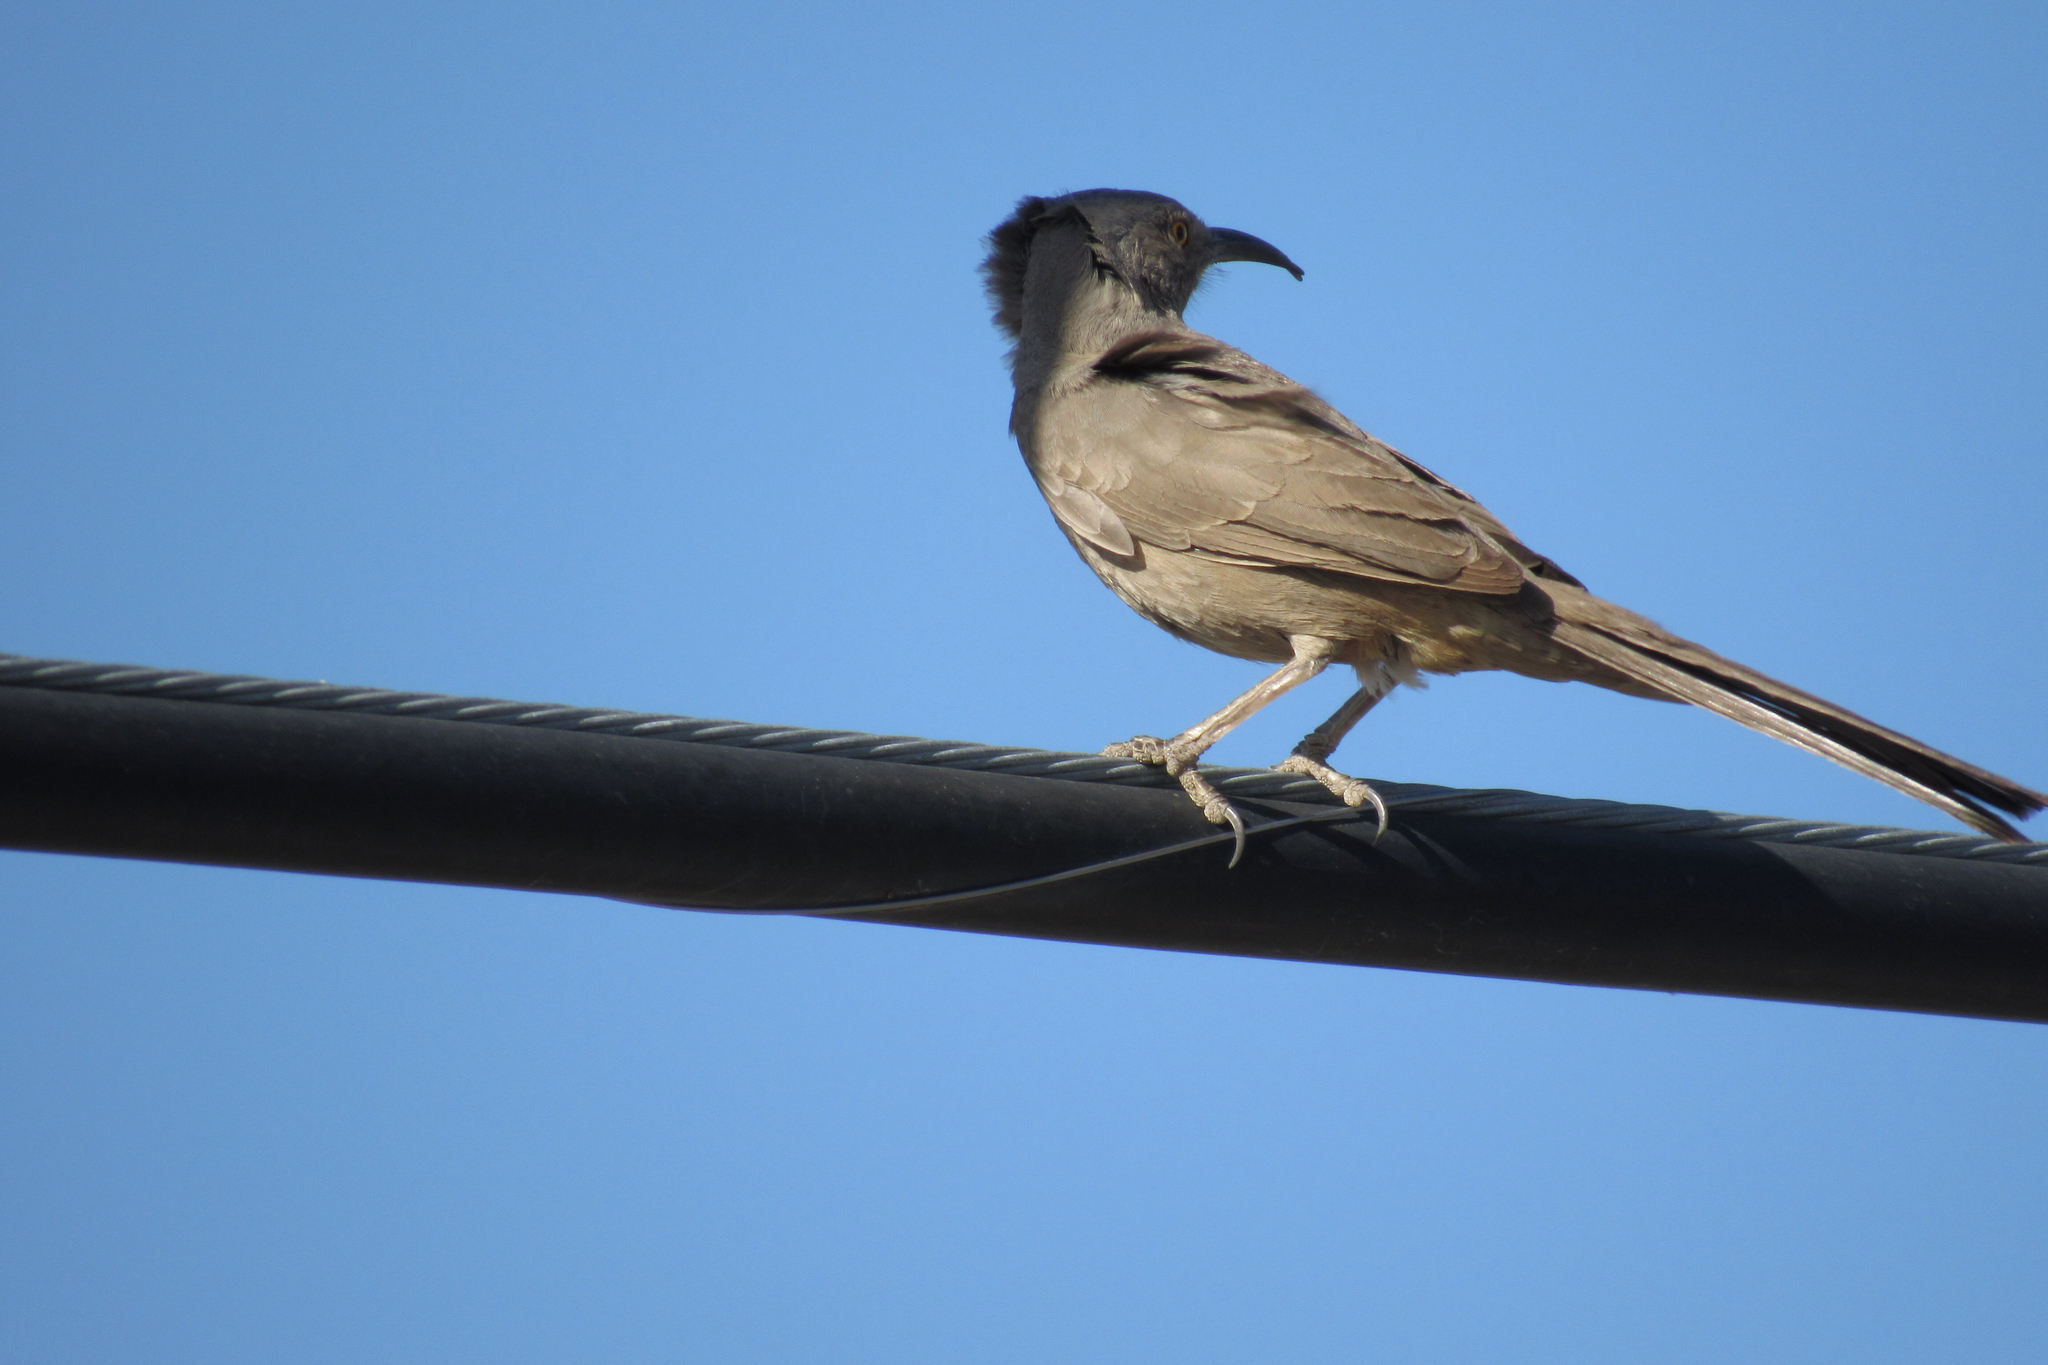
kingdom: Animalia
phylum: Chordata
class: Aves
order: Passeriformes
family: Mimidae
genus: Toxostoma
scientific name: Toxostoma curvirostre
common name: Curve-billed thrasher
